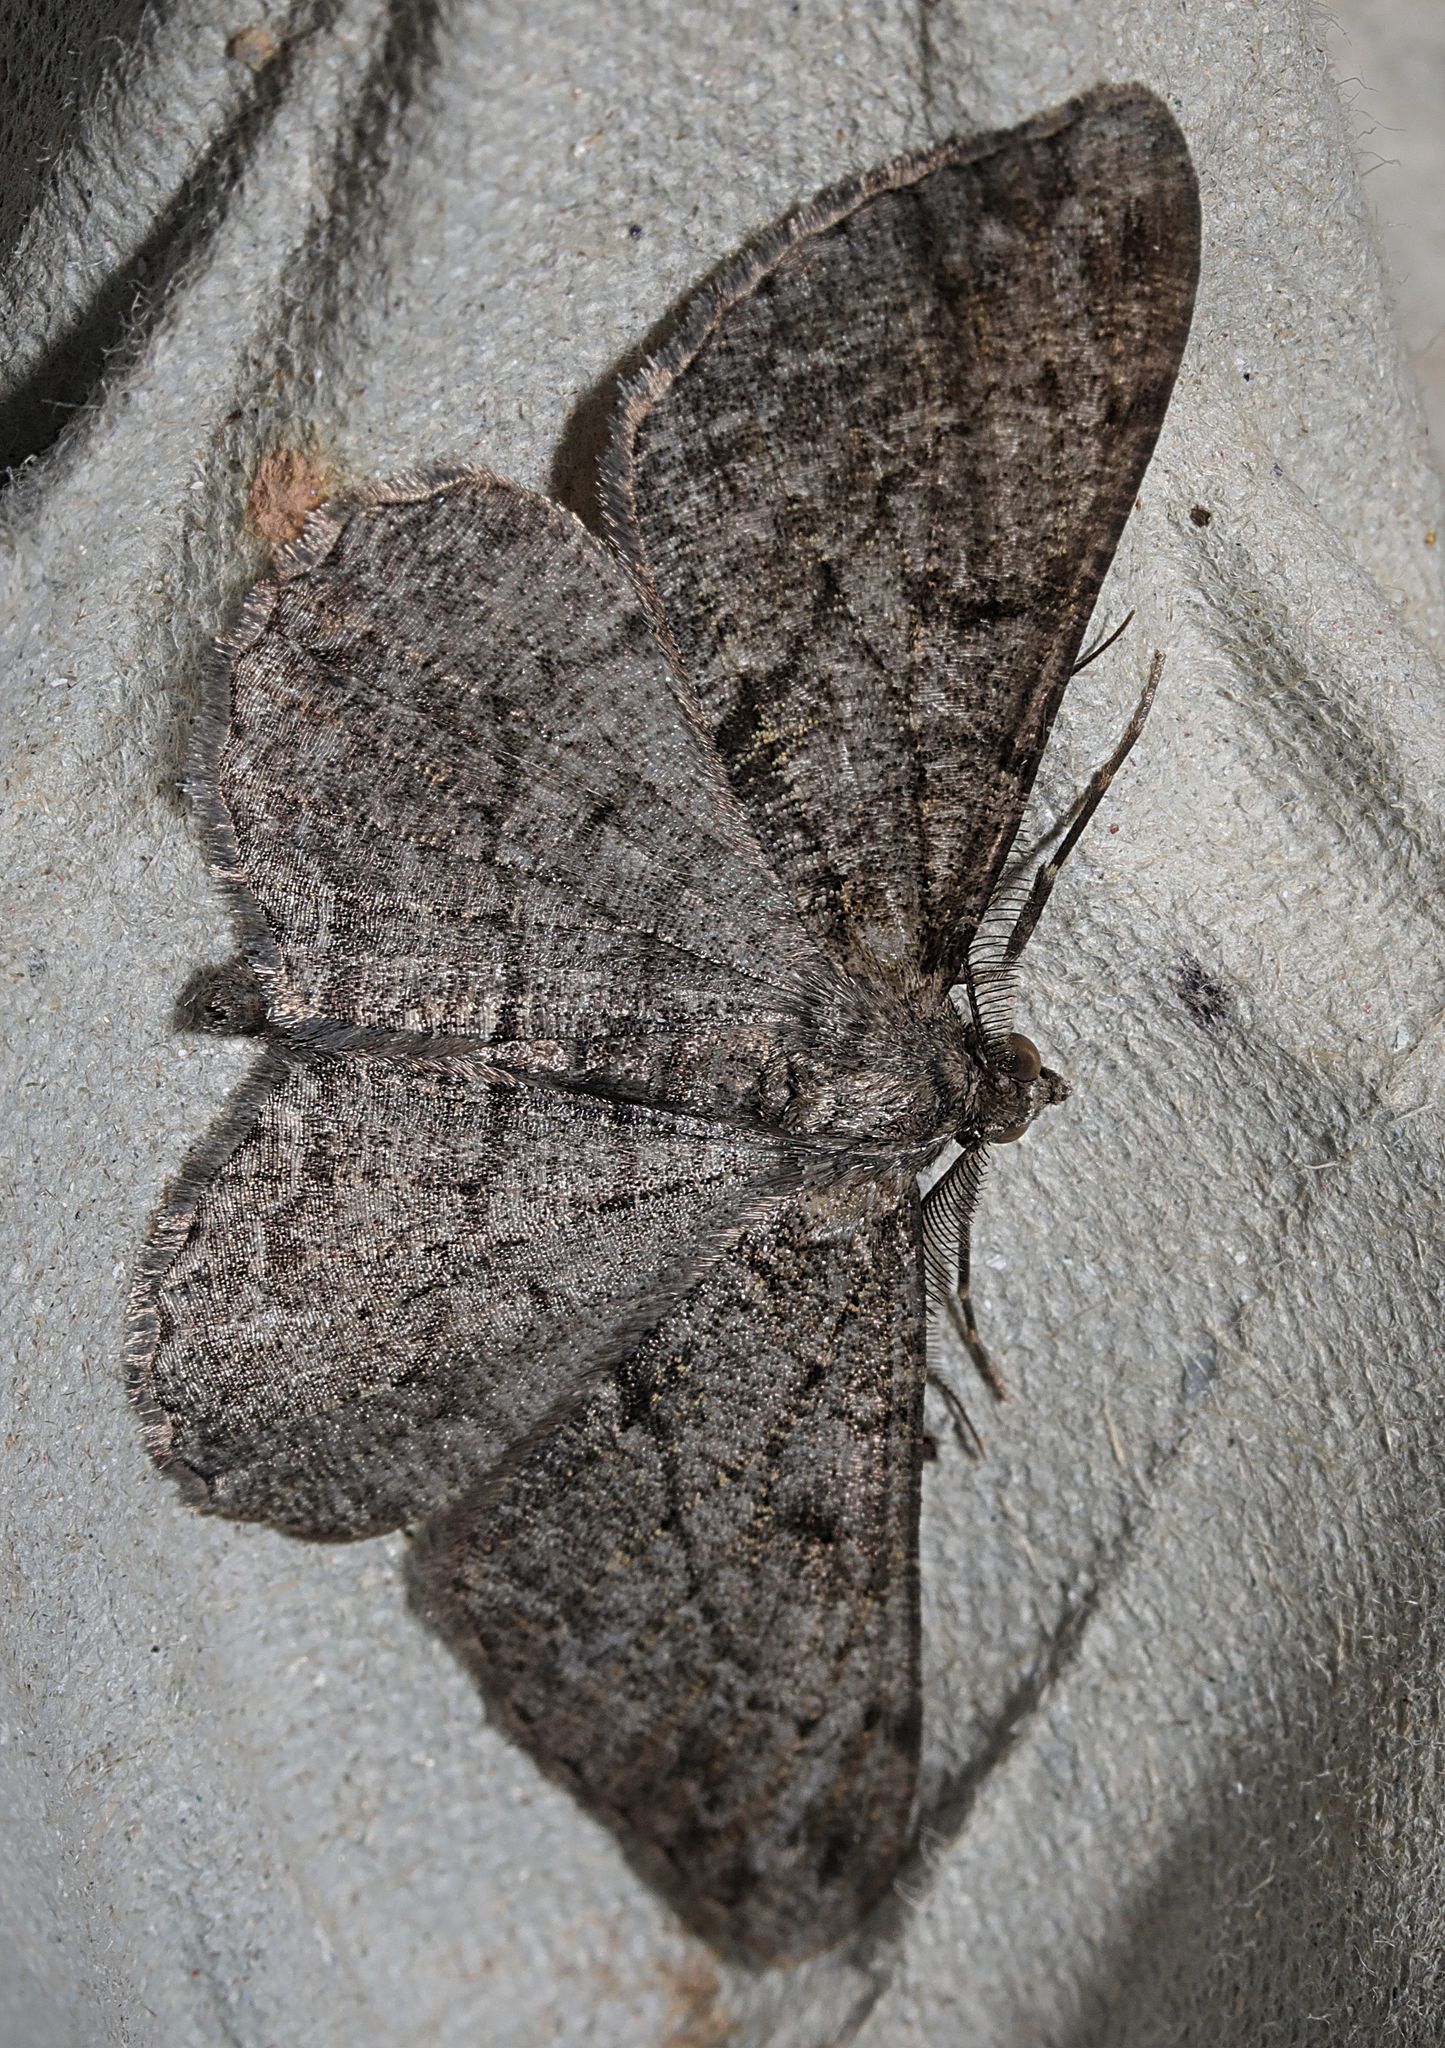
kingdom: Animalia
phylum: Arthropoda
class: Insecta
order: Lepidoptera
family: Geometridae
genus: Peribatodes
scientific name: Peribatodes rhomboidaria
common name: Willow beauty
